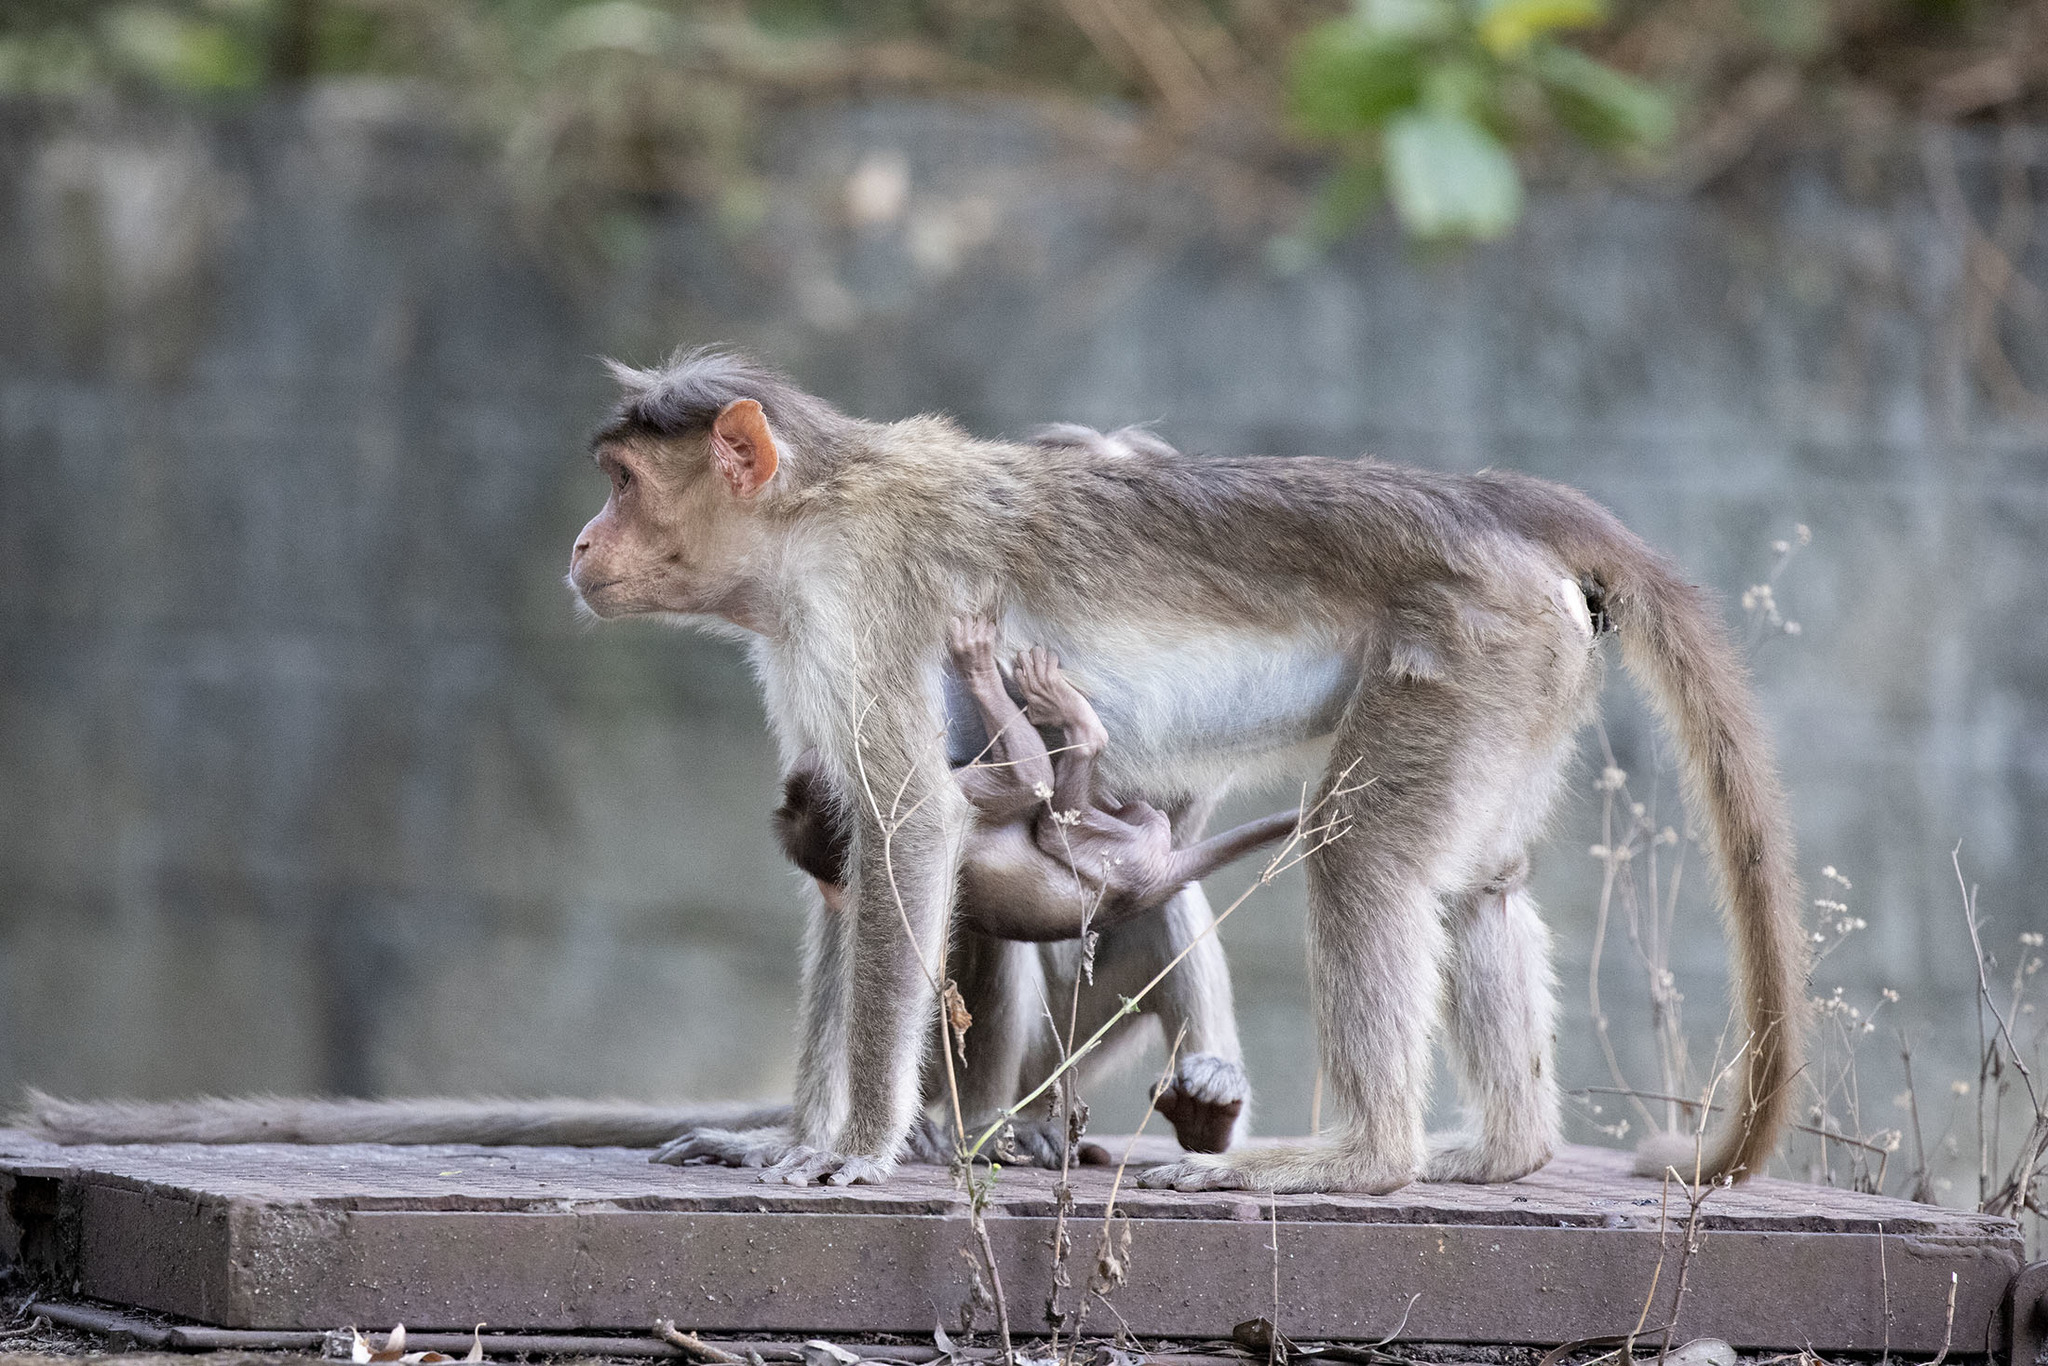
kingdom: Animalia
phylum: Chordata
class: Mammalia
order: Primates
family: Cercopithecidae
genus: Macaca
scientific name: Macaca radiata
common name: Bonnet macaque
